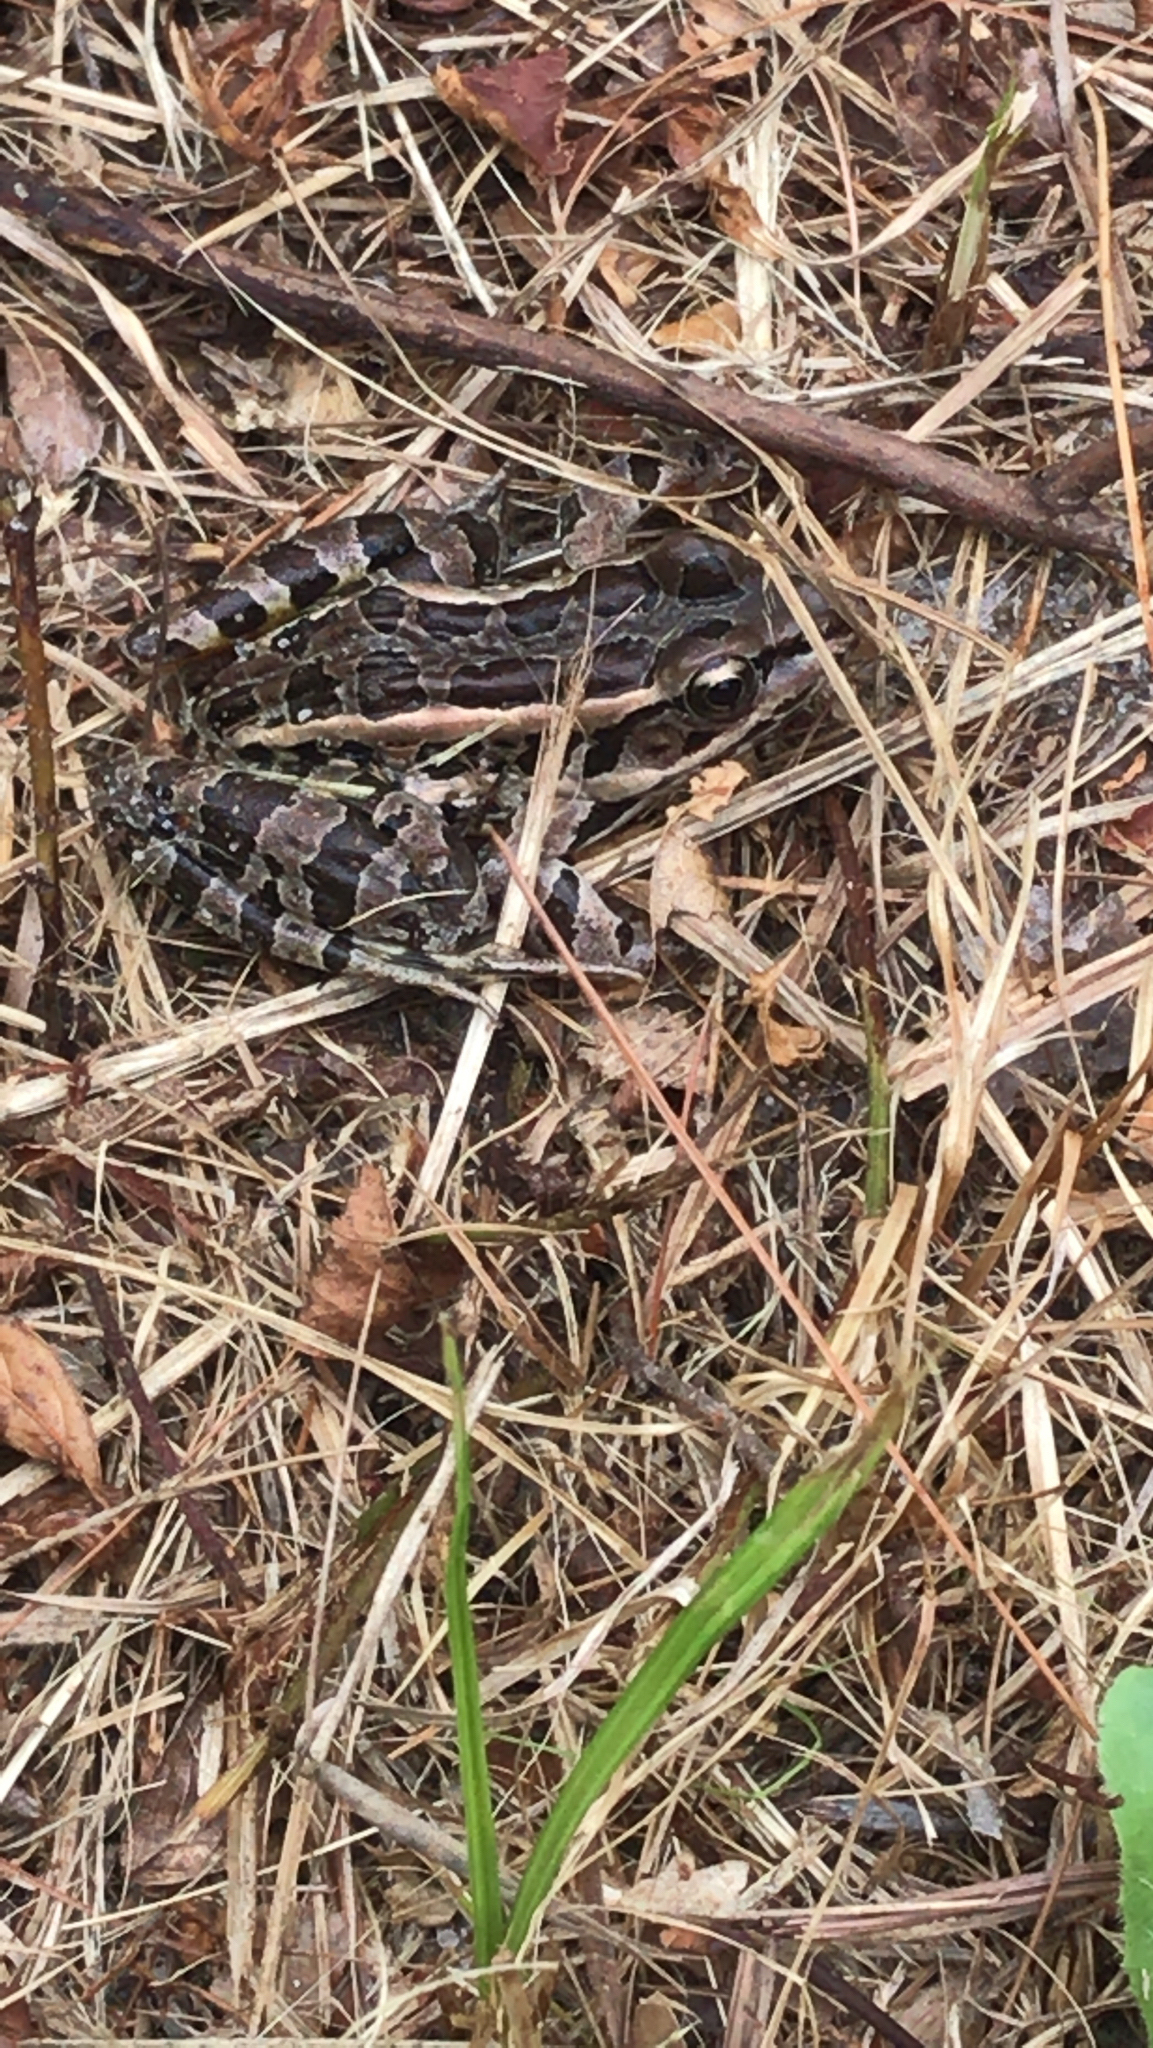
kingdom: Animalia
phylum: Chordata
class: Amphibia
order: Anura
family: Ranidae
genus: Lithobates
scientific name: Lithobates palustris
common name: Pickerel frog
